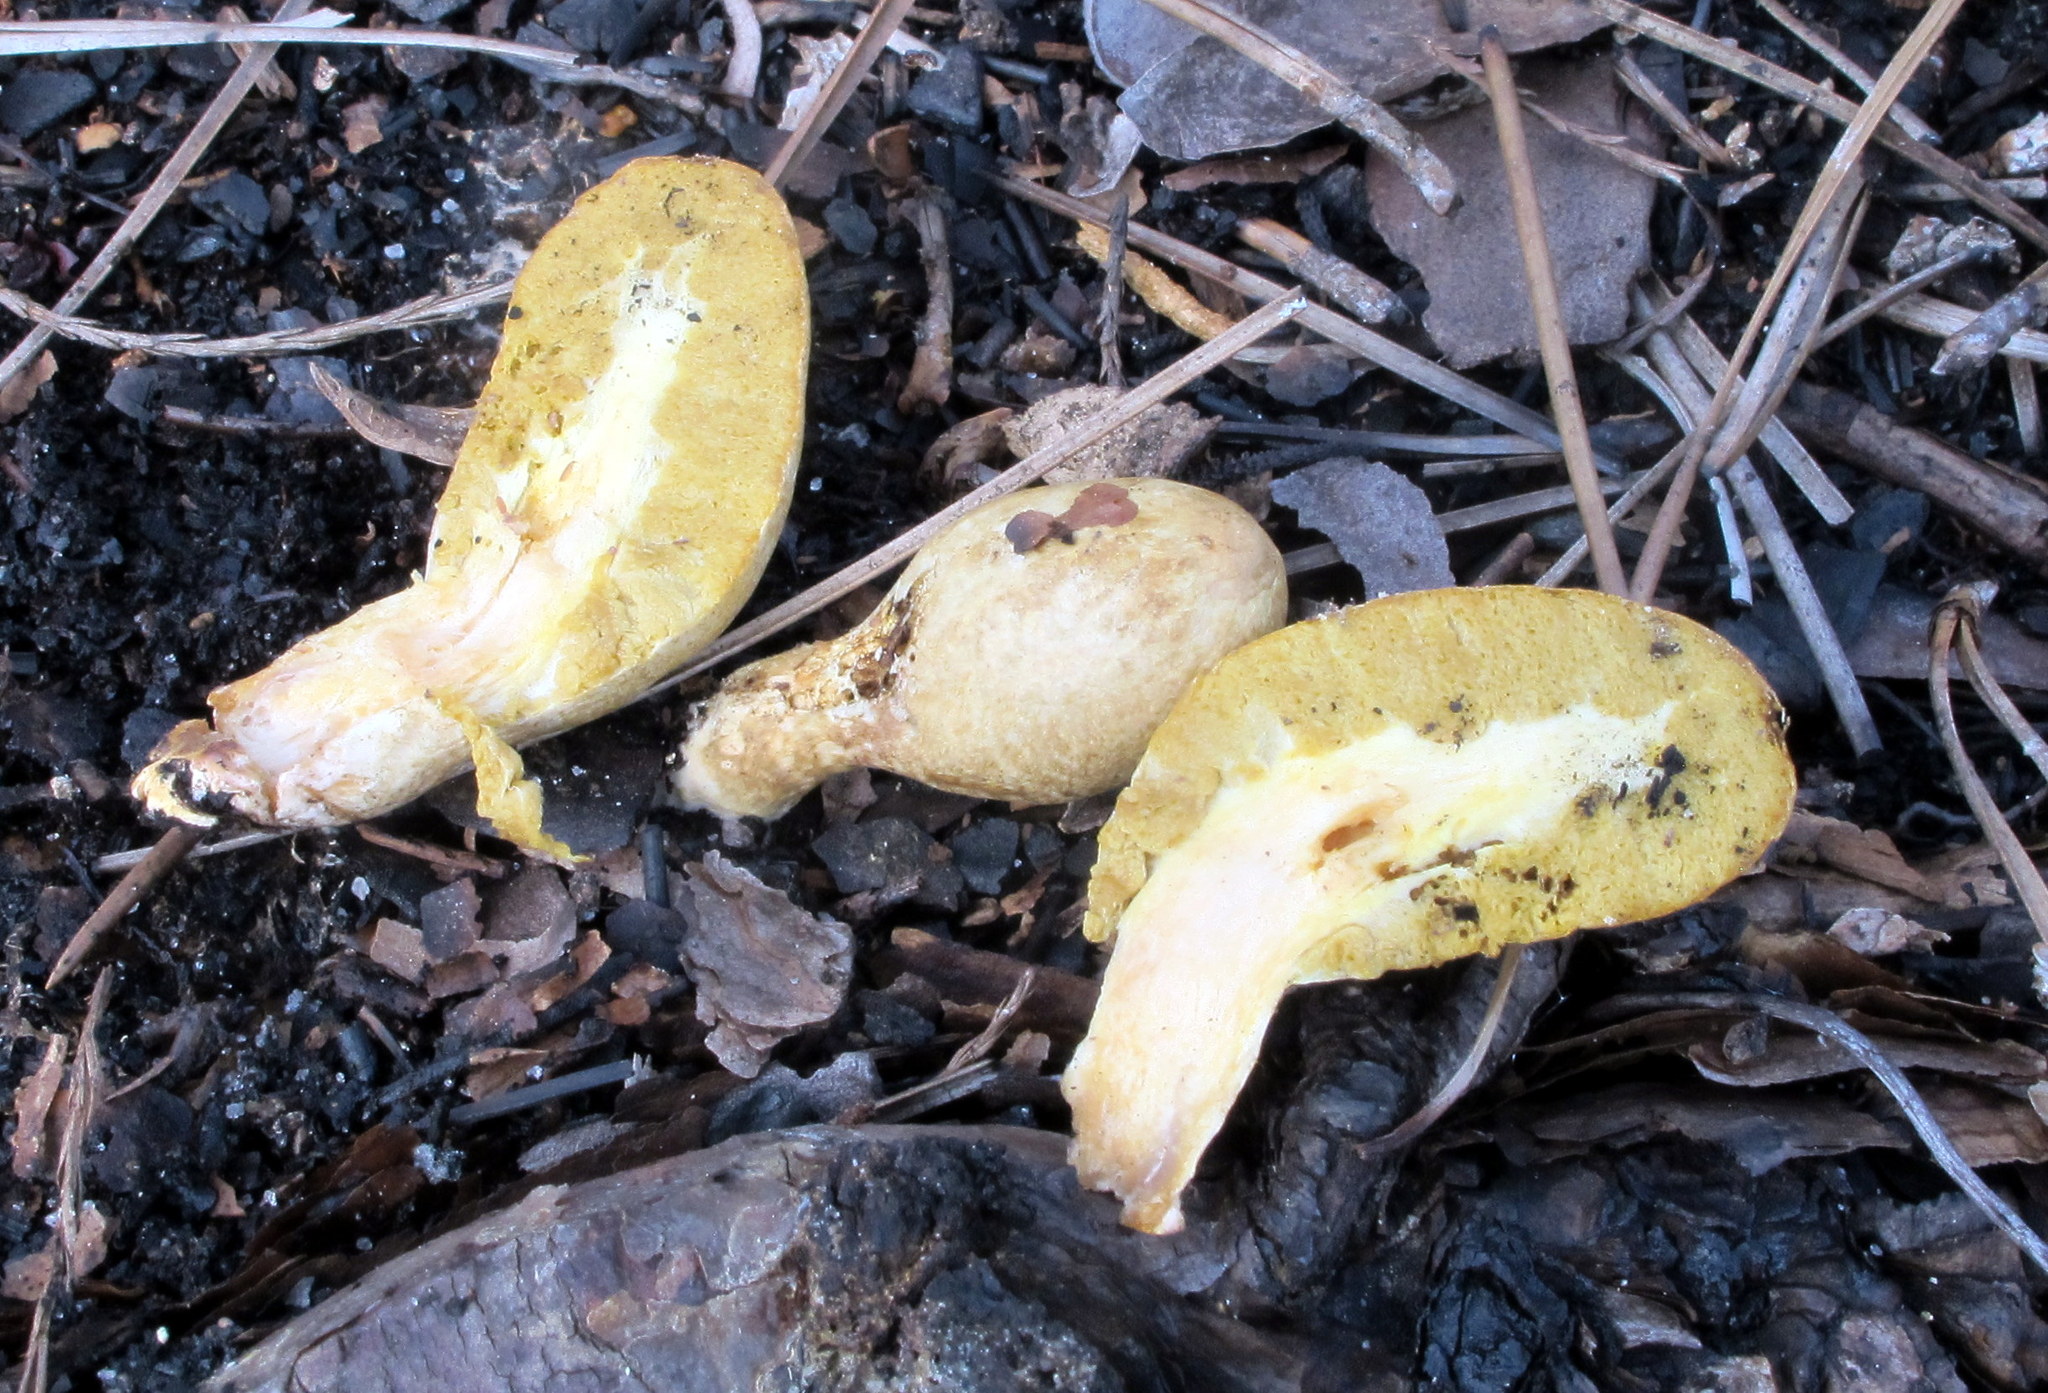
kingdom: Fungi
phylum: Basidiomycota
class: Agaricomycetes
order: Boletales
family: Rhizopogonaceae
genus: Rhopalogaster
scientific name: Rhopalogaster transversarius
